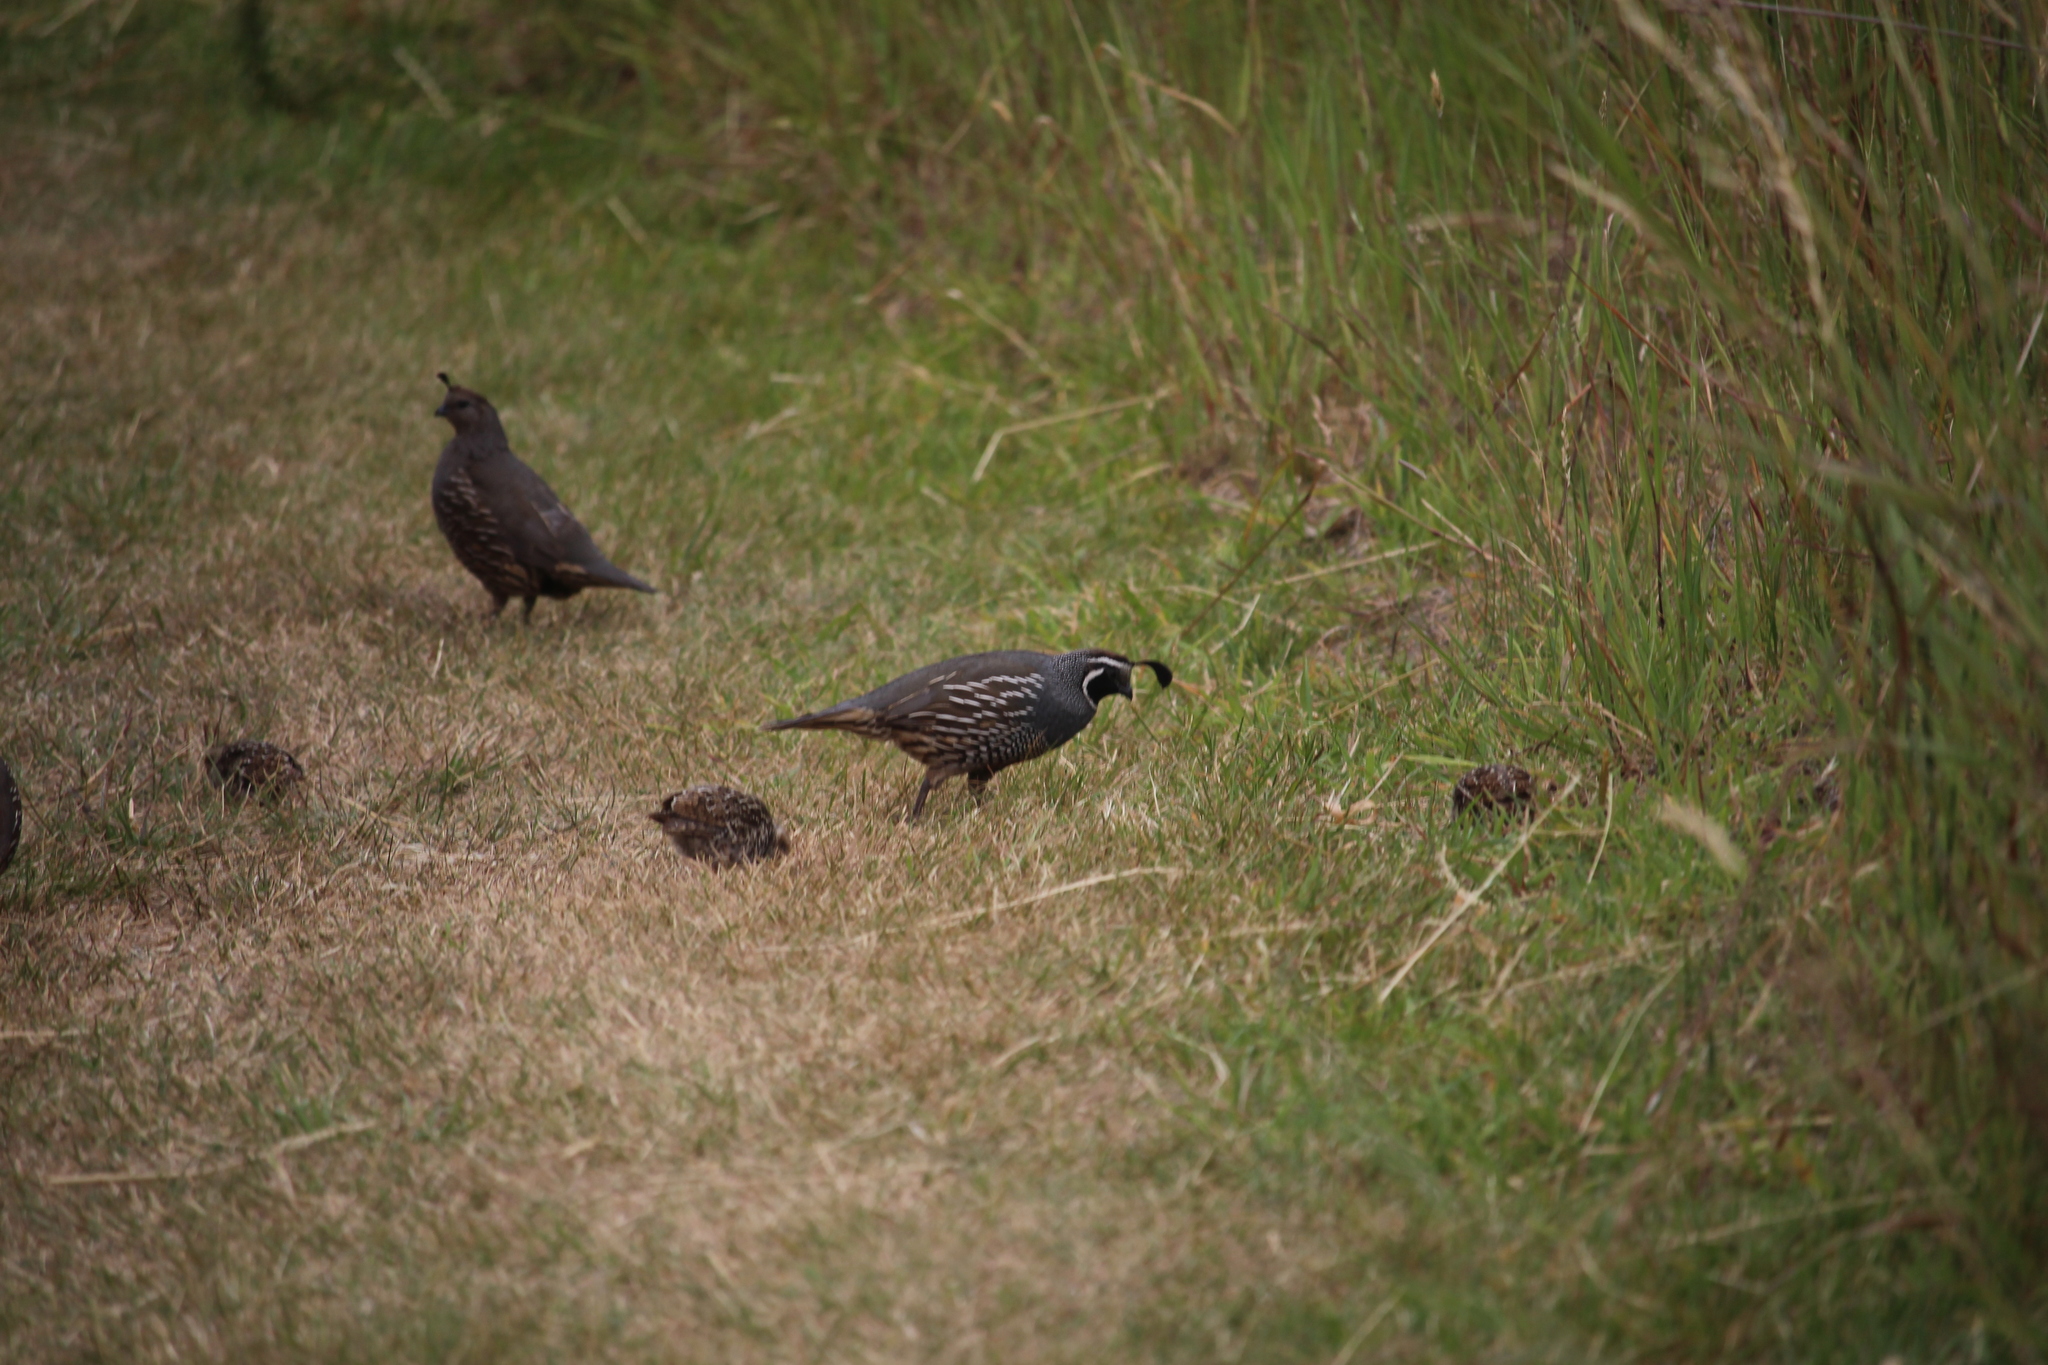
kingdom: Animalia
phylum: Chordata
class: Aves
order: Galliformes
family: Odontophoridae
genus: Callipepla
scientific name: Callipepla californica
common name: California quail
